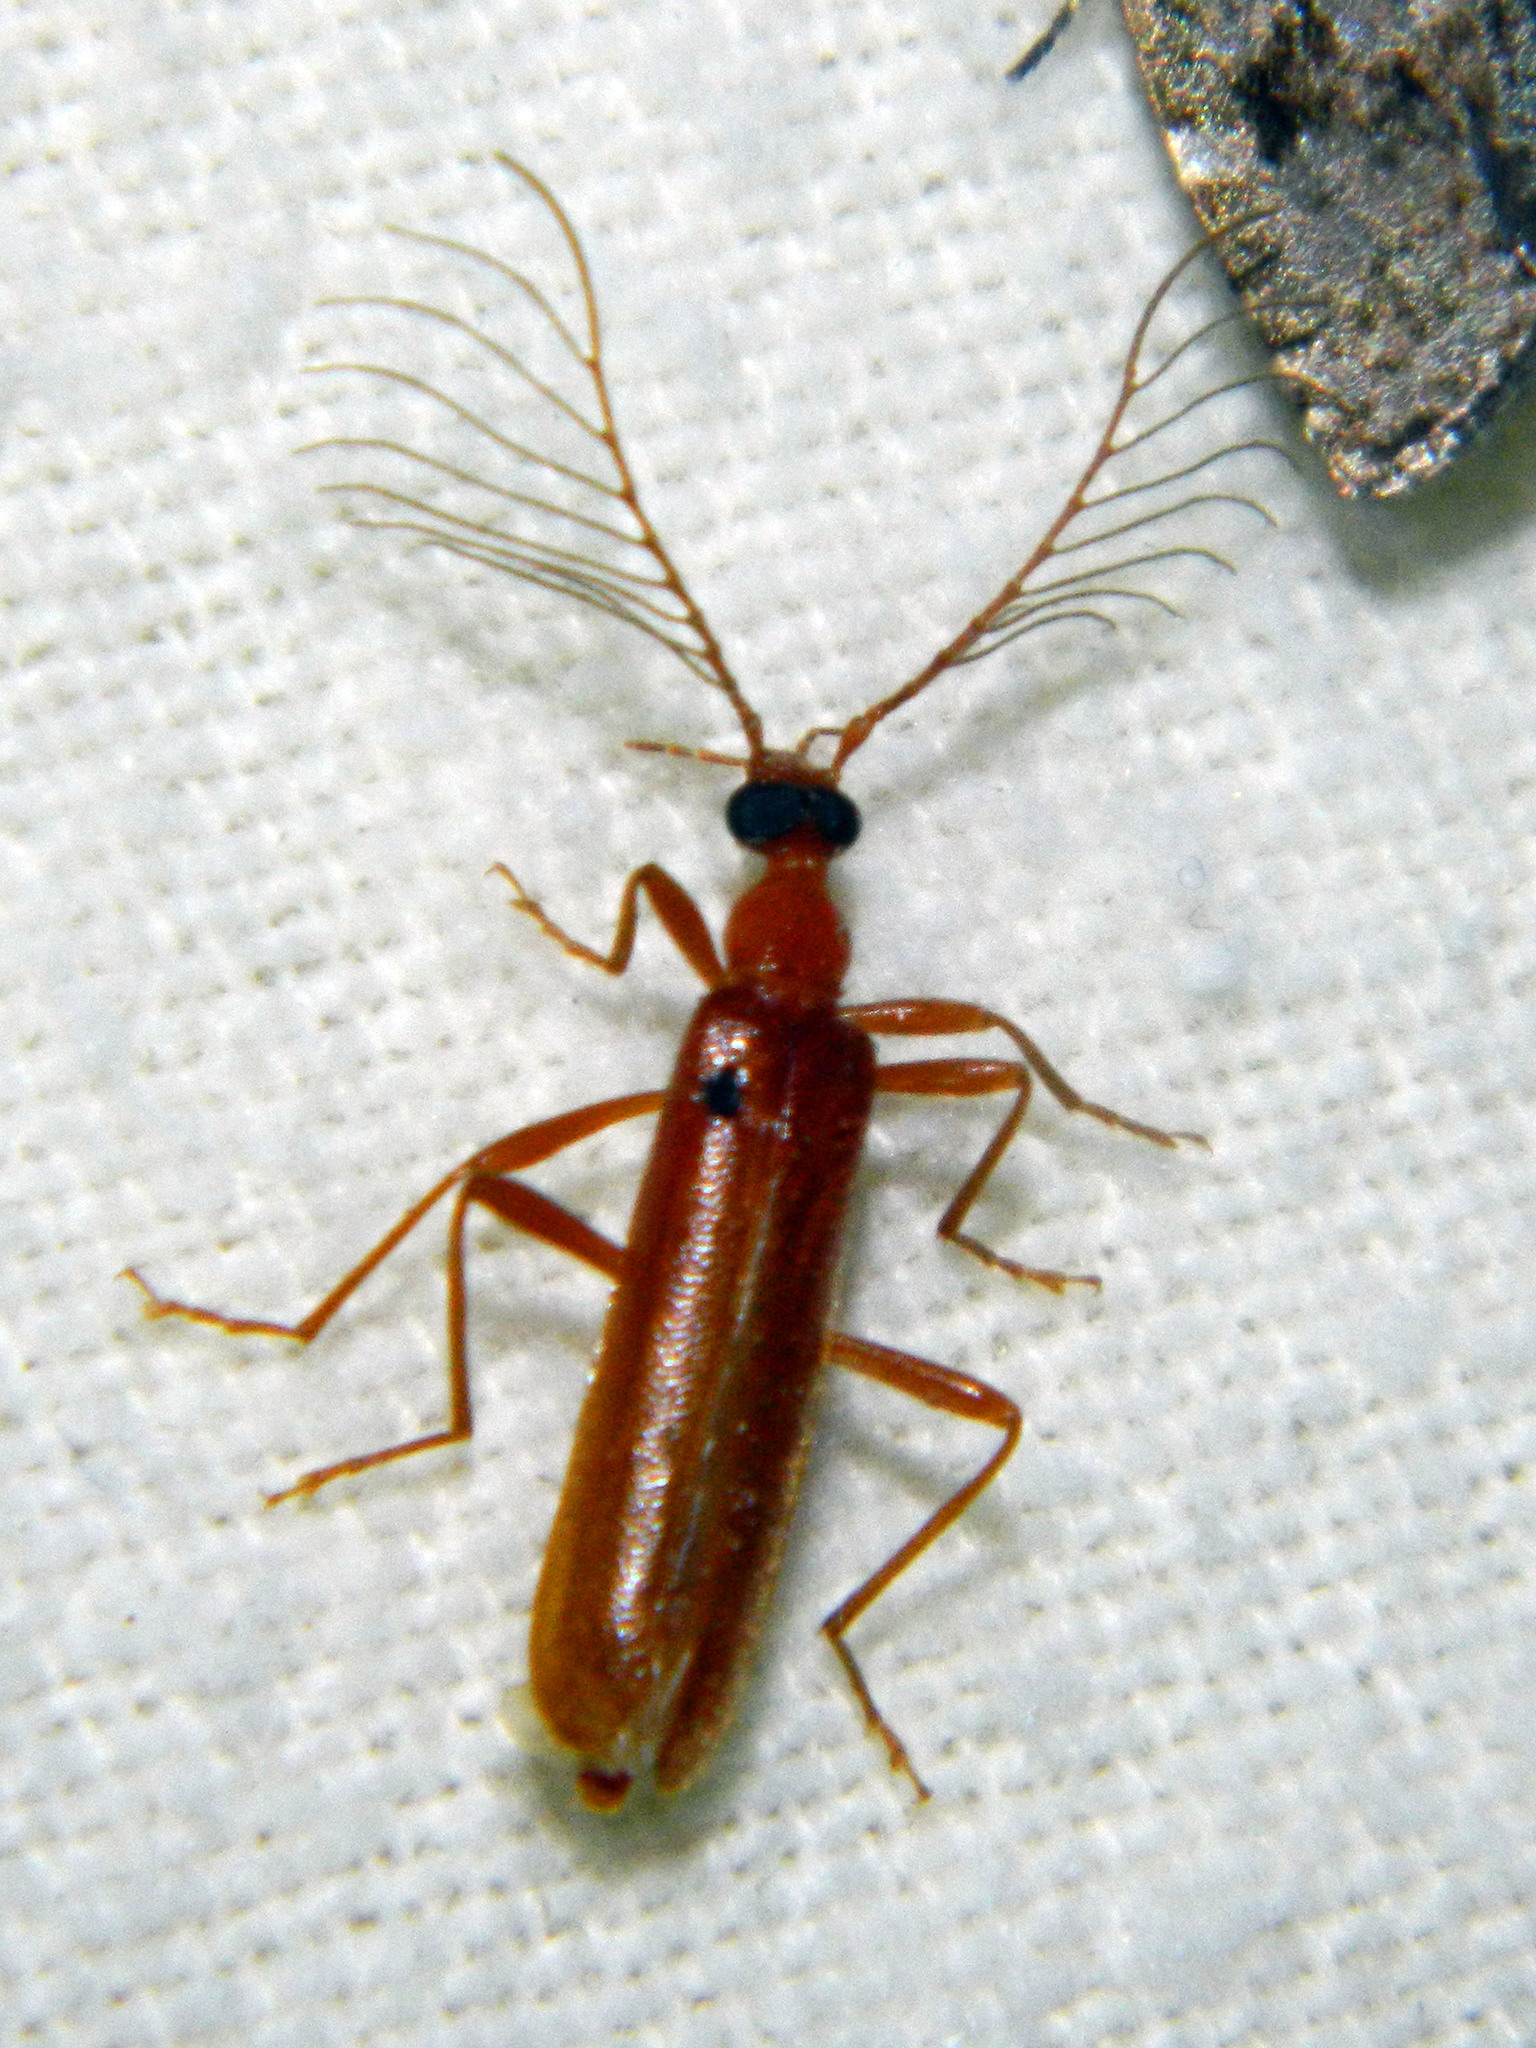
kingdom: Animalia
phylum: Arthropoda
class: Insecta
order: Coleoptera
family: Pyrochroidae
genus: Dendroides
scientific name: Dendroides concolor
